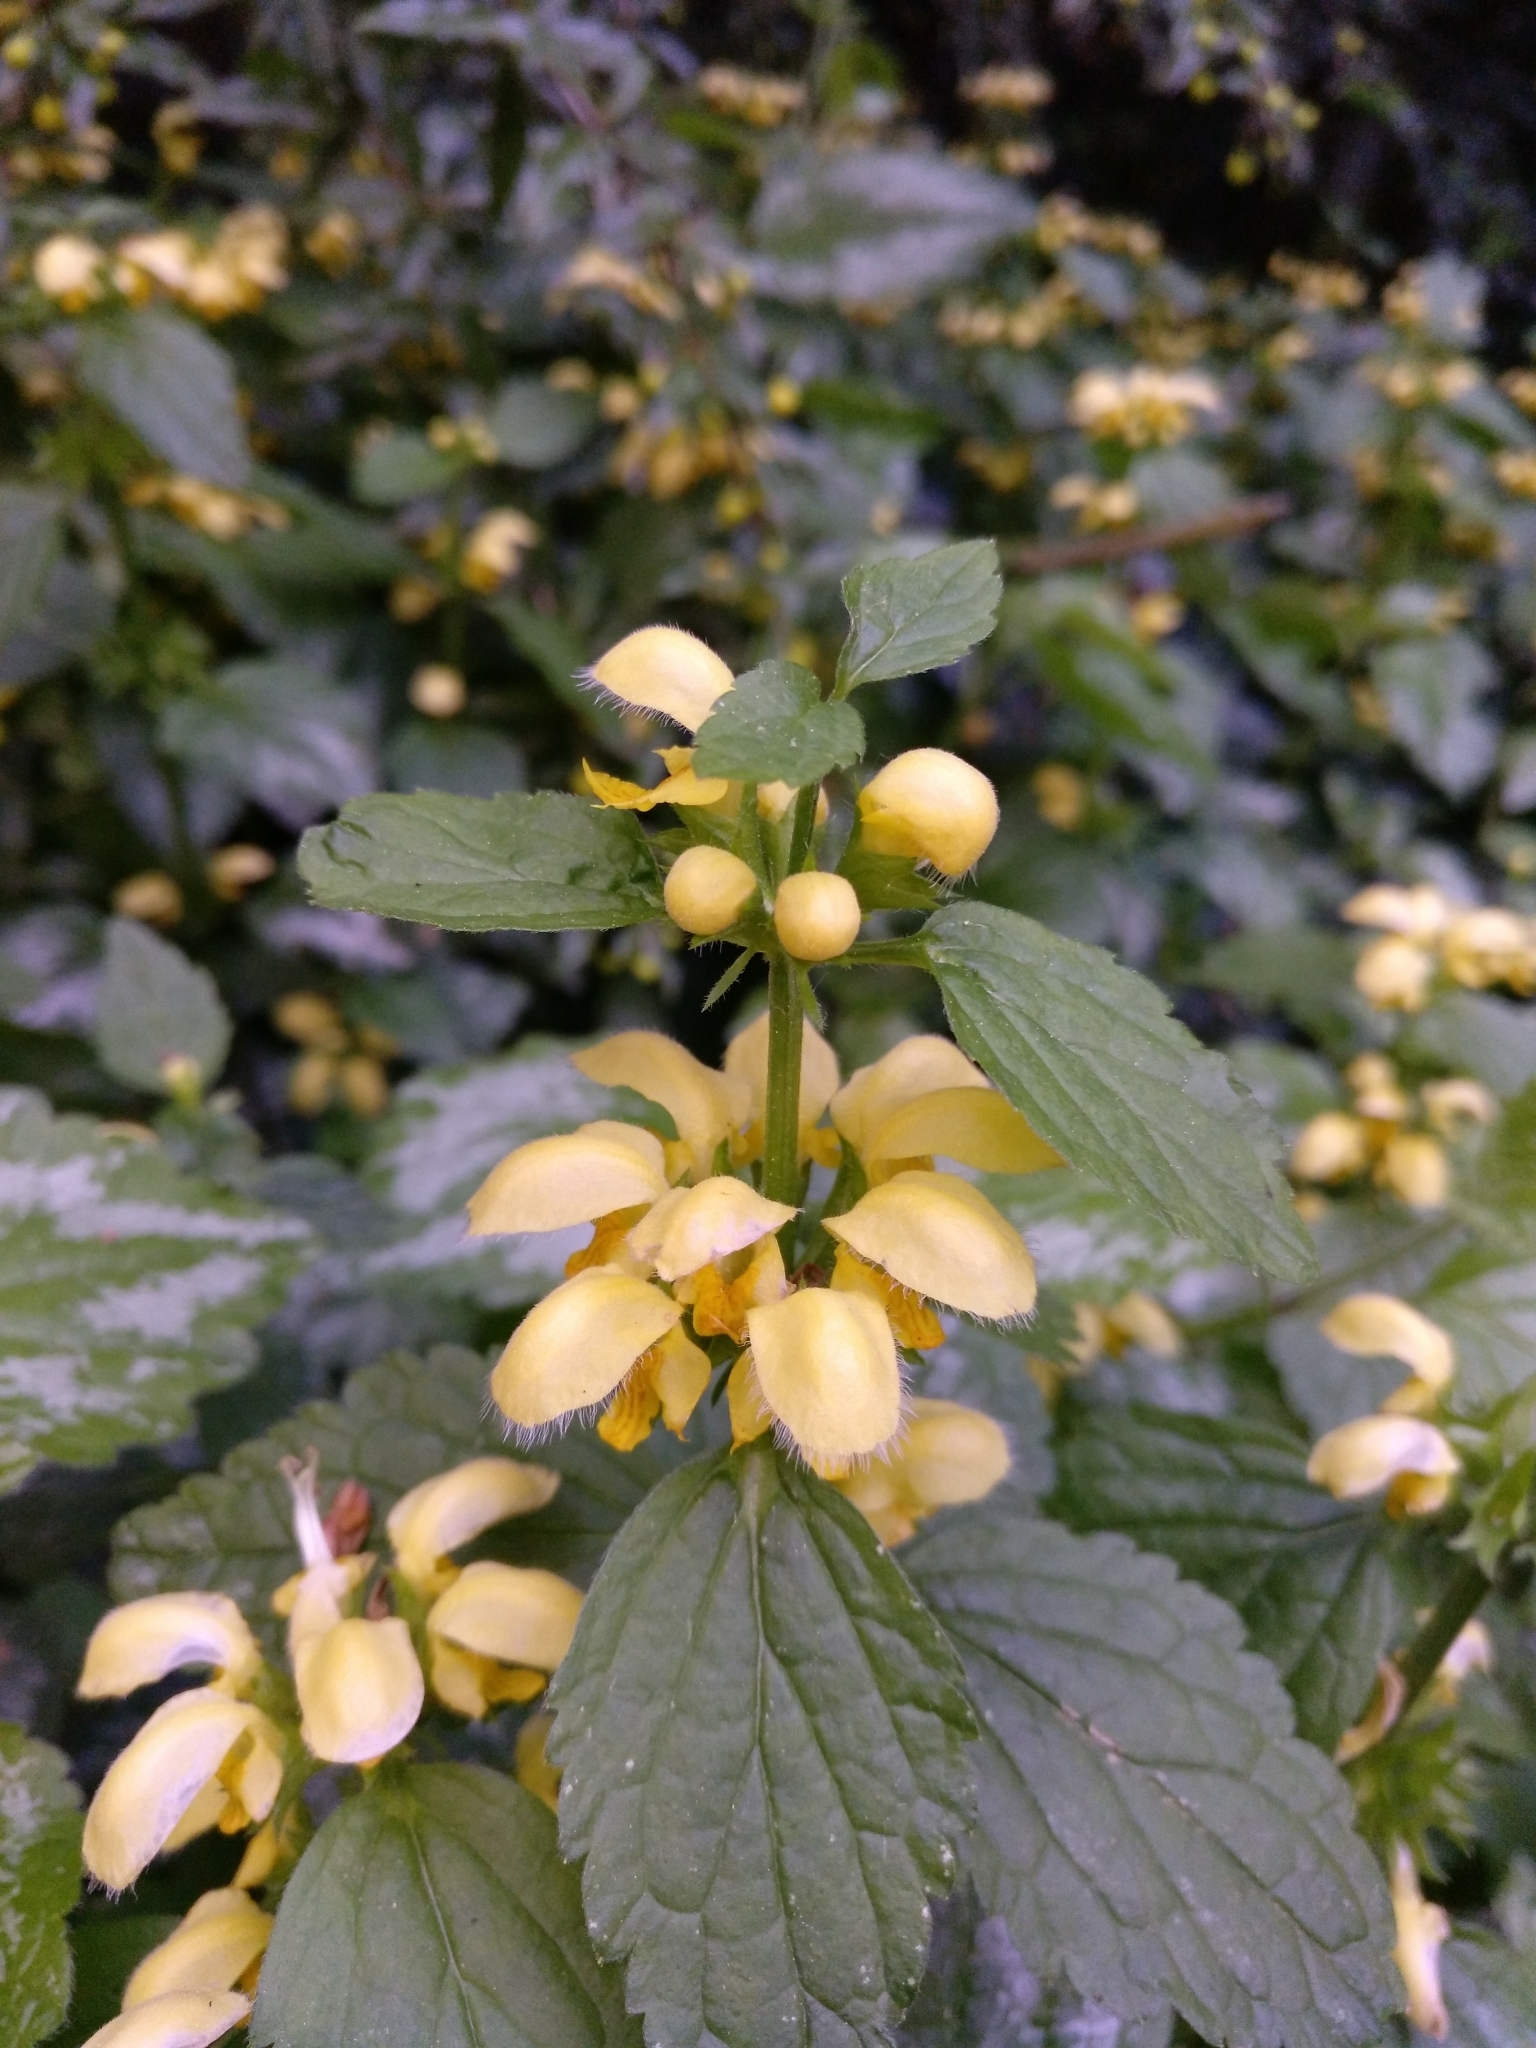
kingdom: Plantae
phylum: Tracheophyta
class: Magnoliopsida
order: Lamiales
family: Lamiaceae
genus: Lamium
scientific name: Lamium galeobdolon
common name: Yellow archangel
